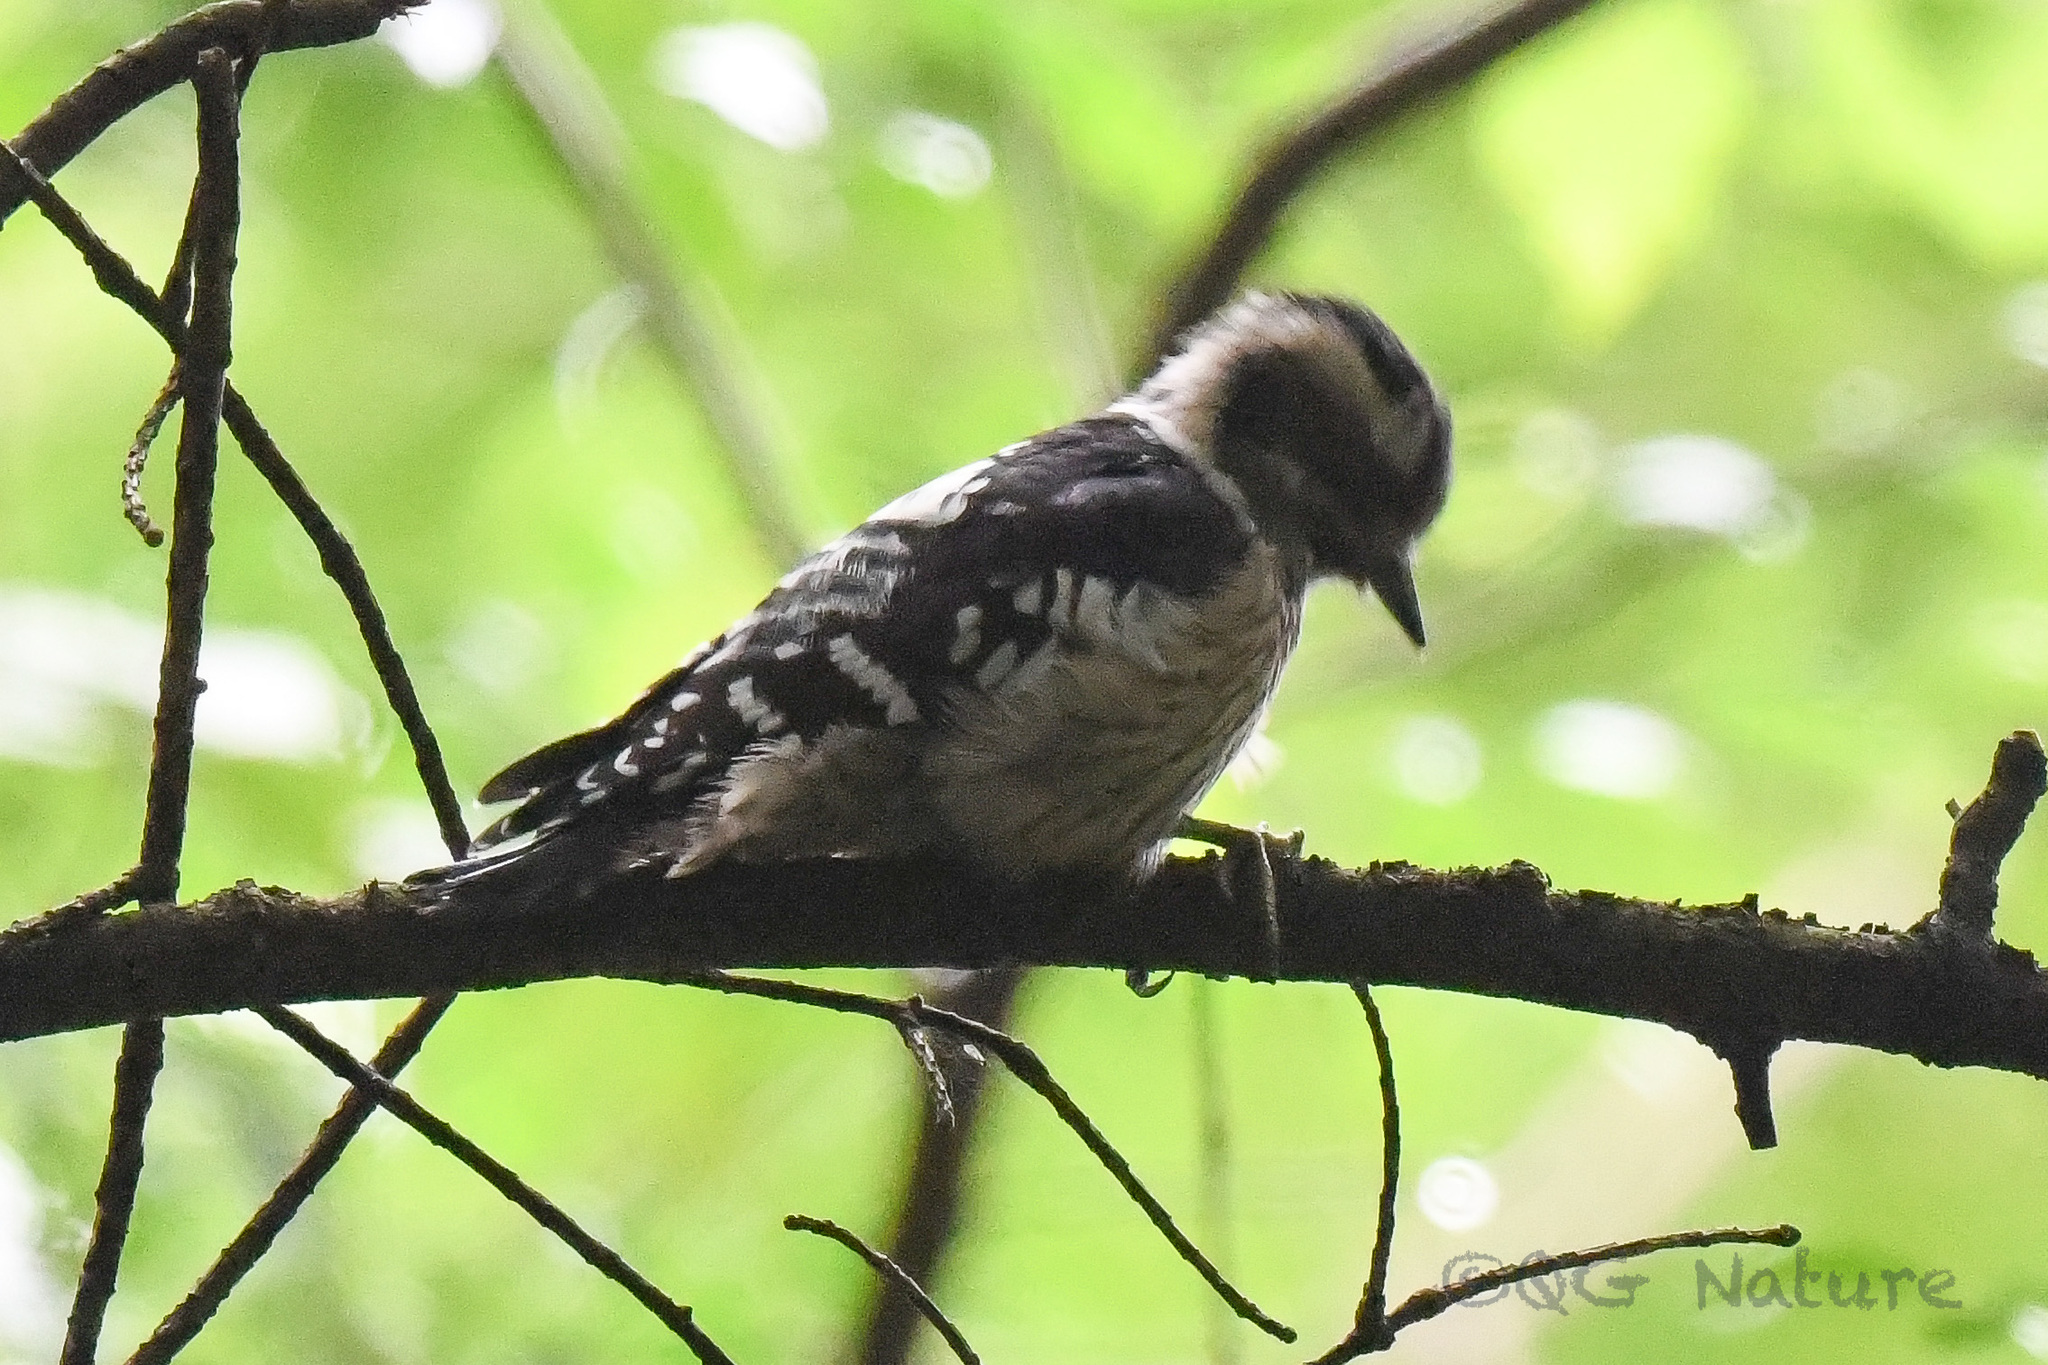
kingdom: Animalia
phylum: Chordata
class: Aves
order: Piciformes
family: Picidae
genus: Yungipicus
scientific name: Yungipicus canicapillus
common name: Grey-capped pygmy woodpecker
